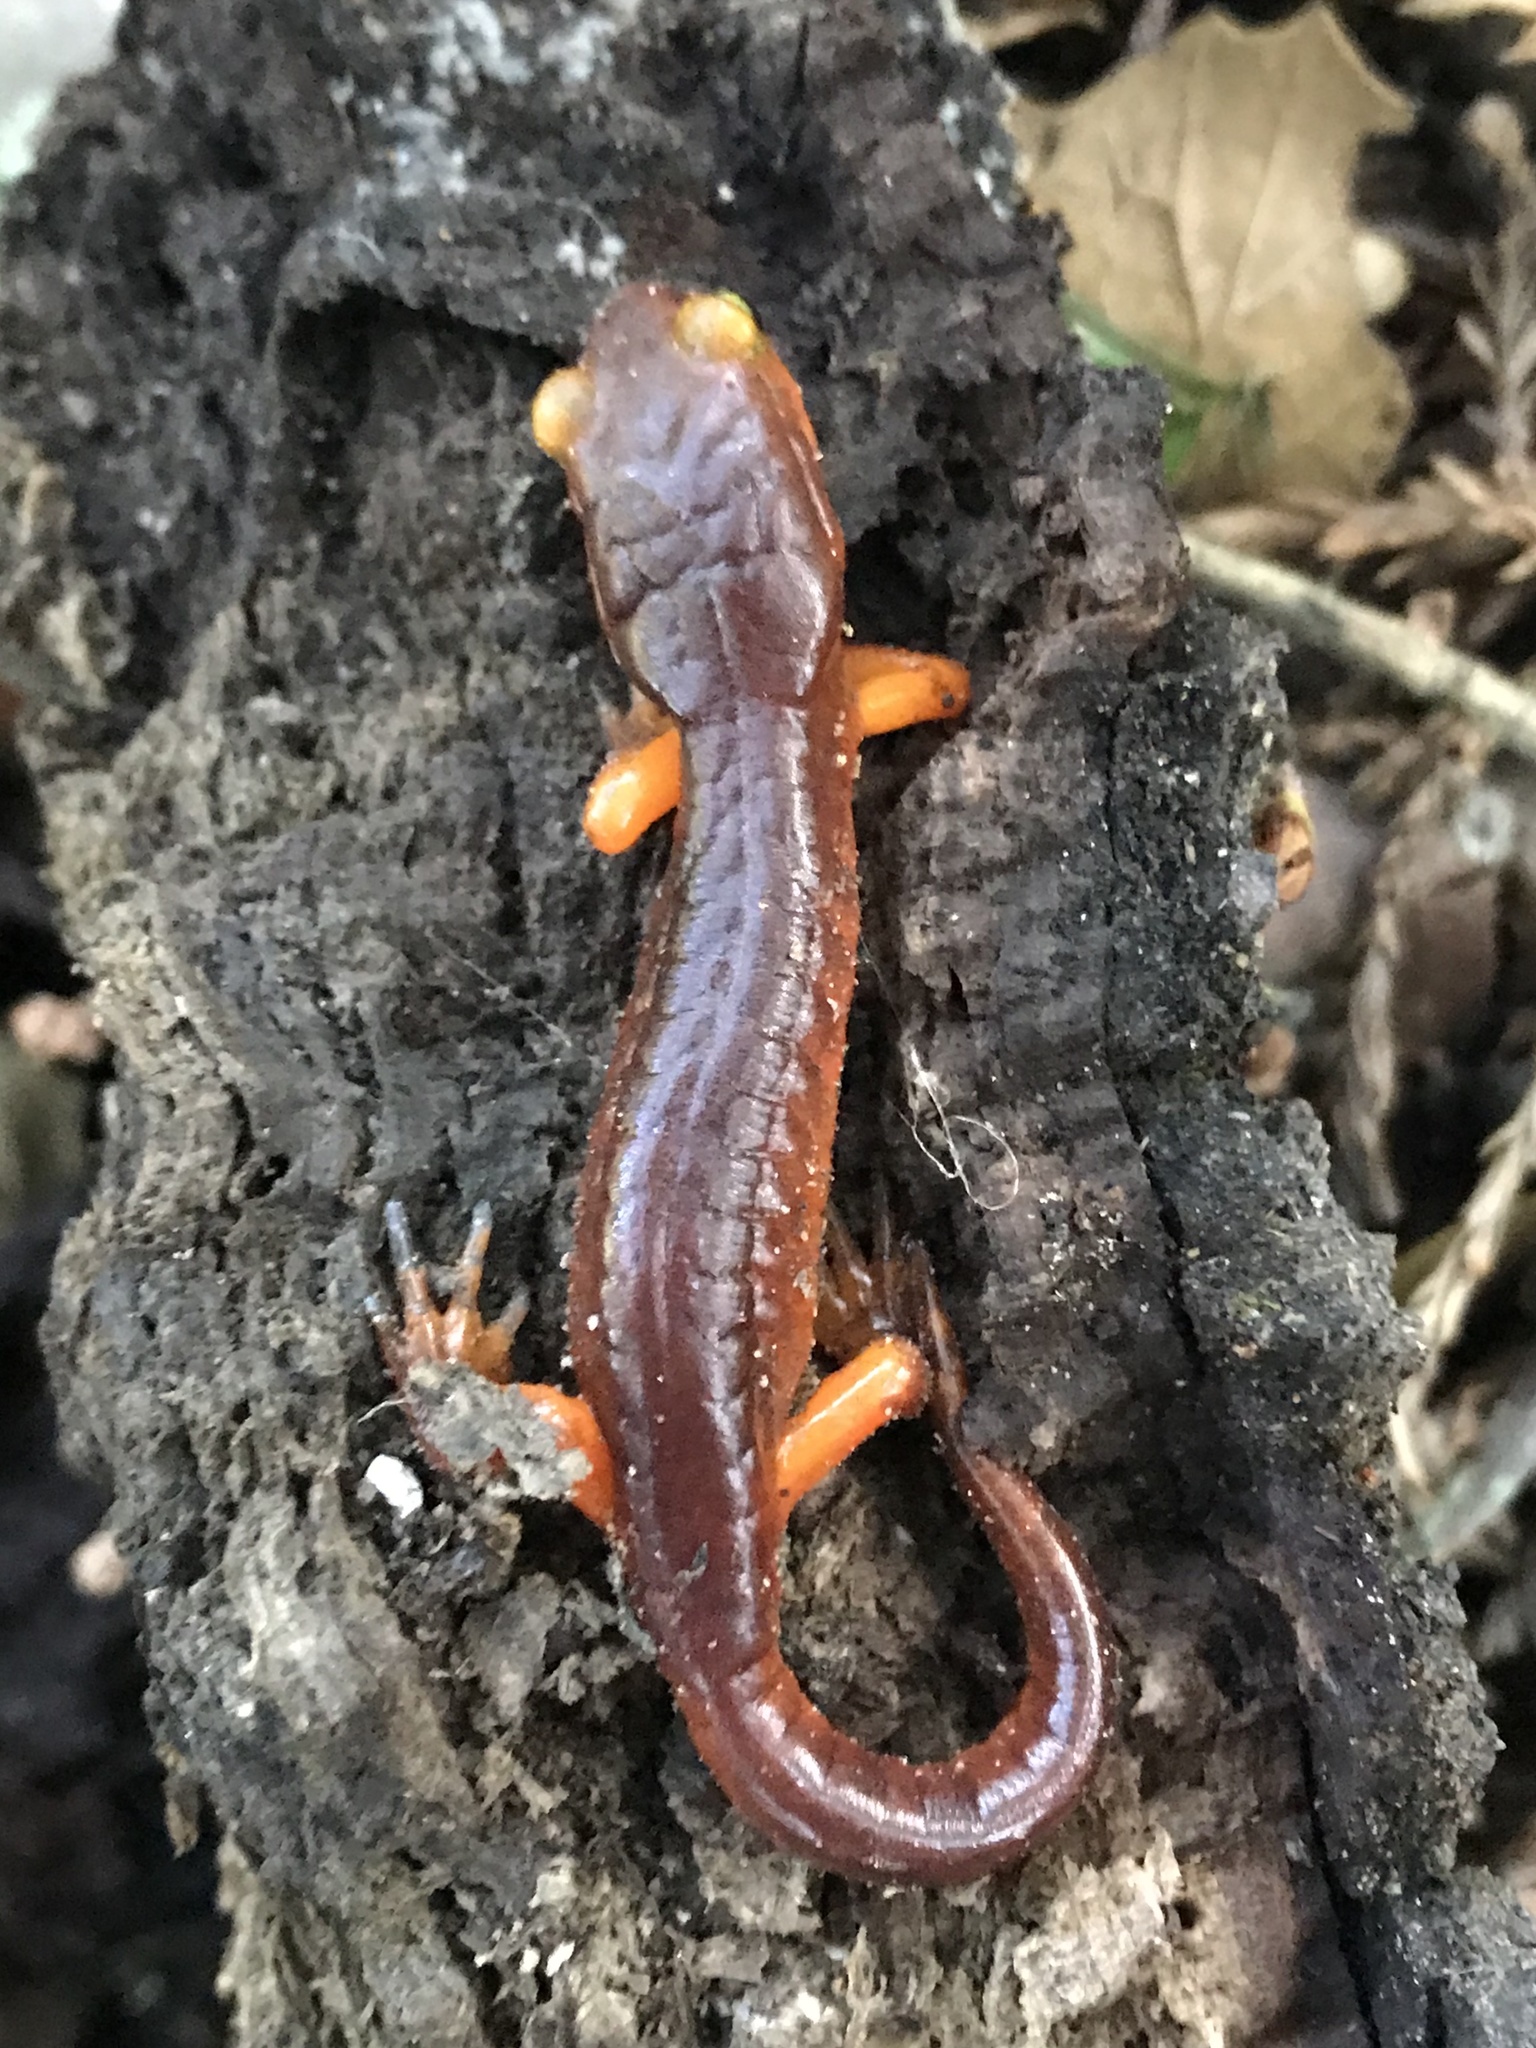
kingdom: Animalia
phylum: Chordata
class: Amphibia
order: Caudata
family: Plethodontidae
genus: Ensatina
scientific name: Ensatina eschscholtzii
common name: Ensatina
